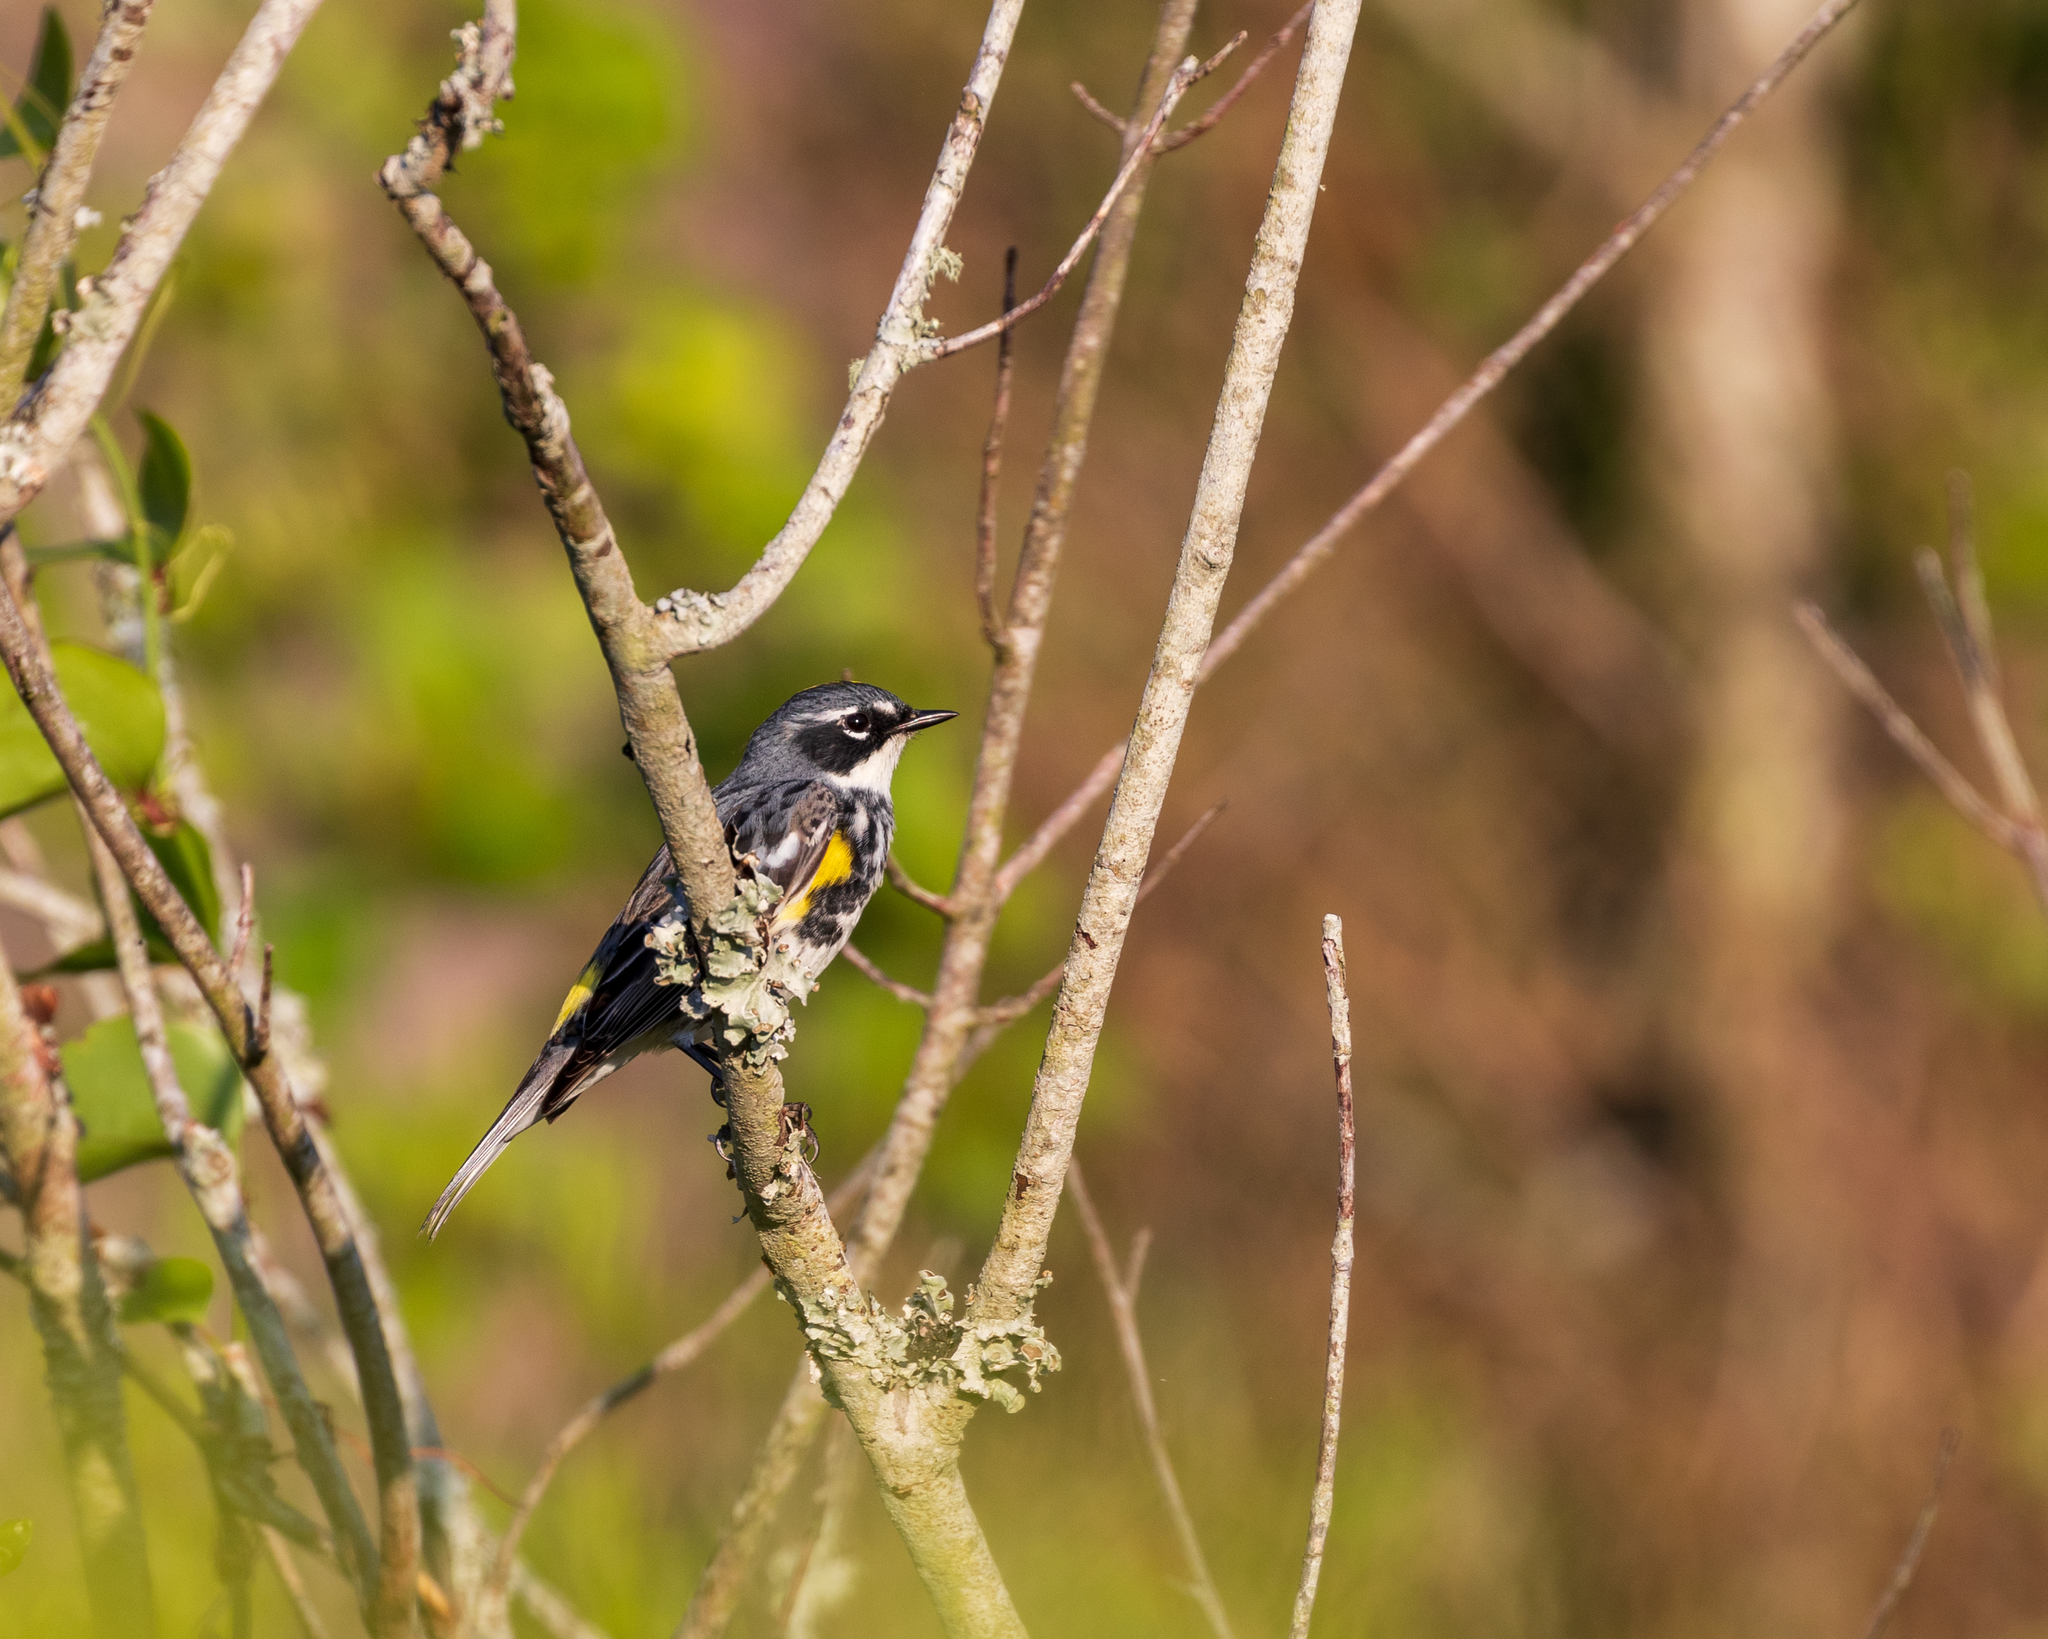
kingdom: Animalia
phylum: Chordata
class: Aves
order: Passeriformes
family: Parulidae
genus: Setophaga
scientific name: Setophaga coronata
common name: Myrtle warbler
